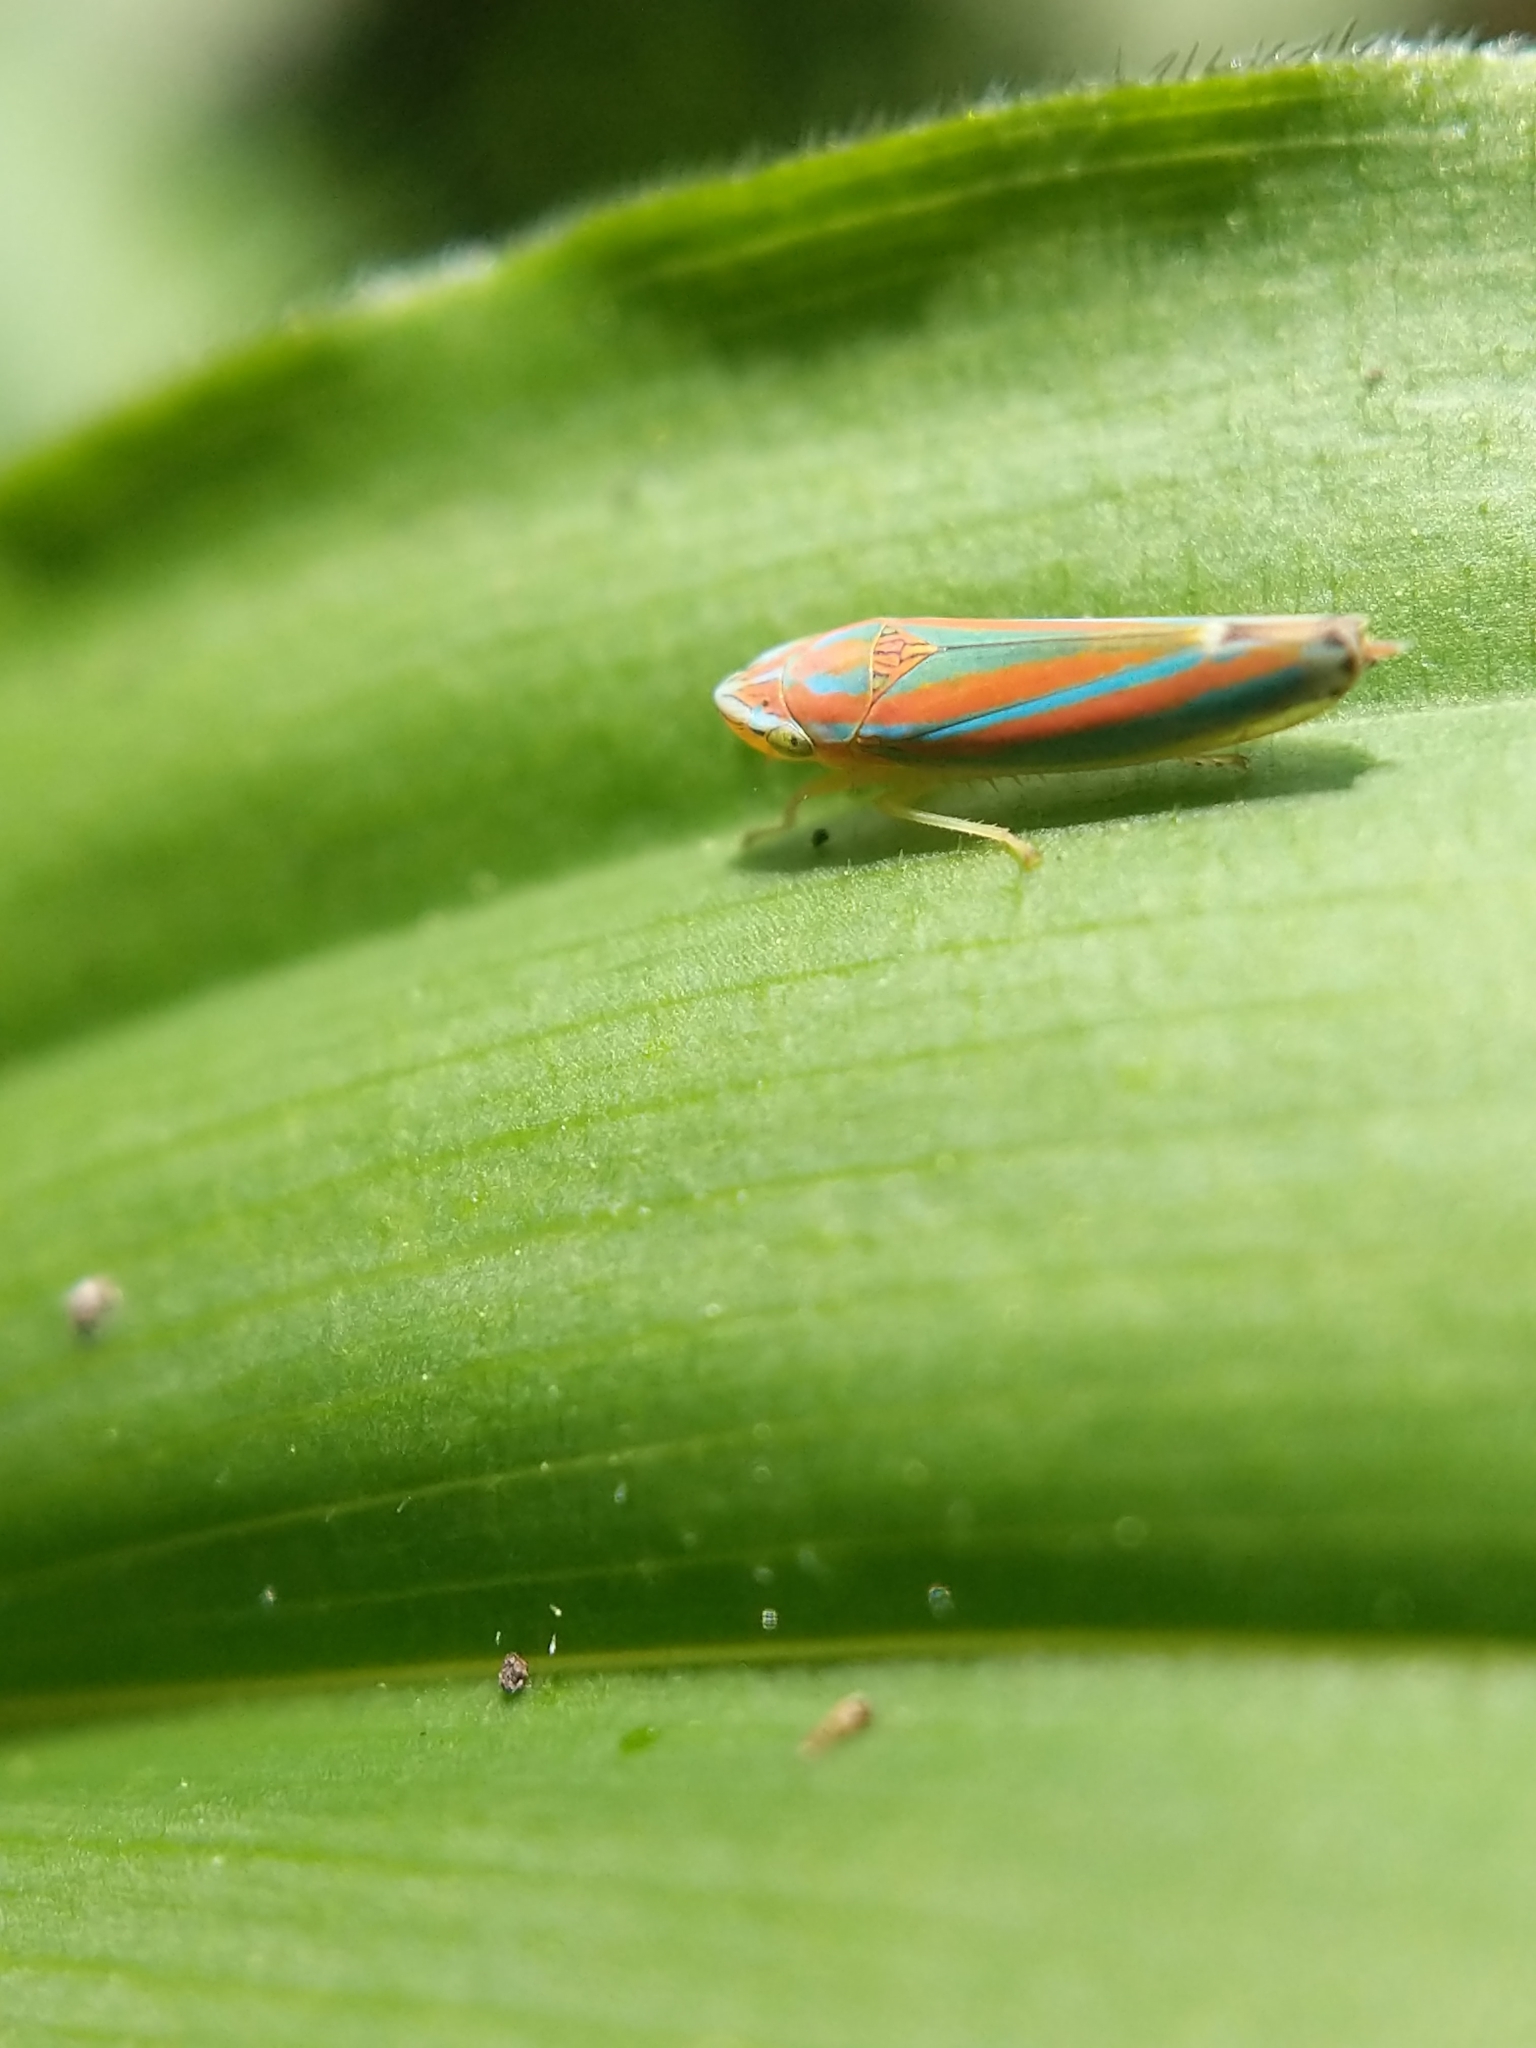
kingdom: Animalia
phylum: Arthropoda
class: Insecta
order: Hemiptera
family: Cicadellidae
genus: Graphocephala
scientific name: Graphocephala versuta
